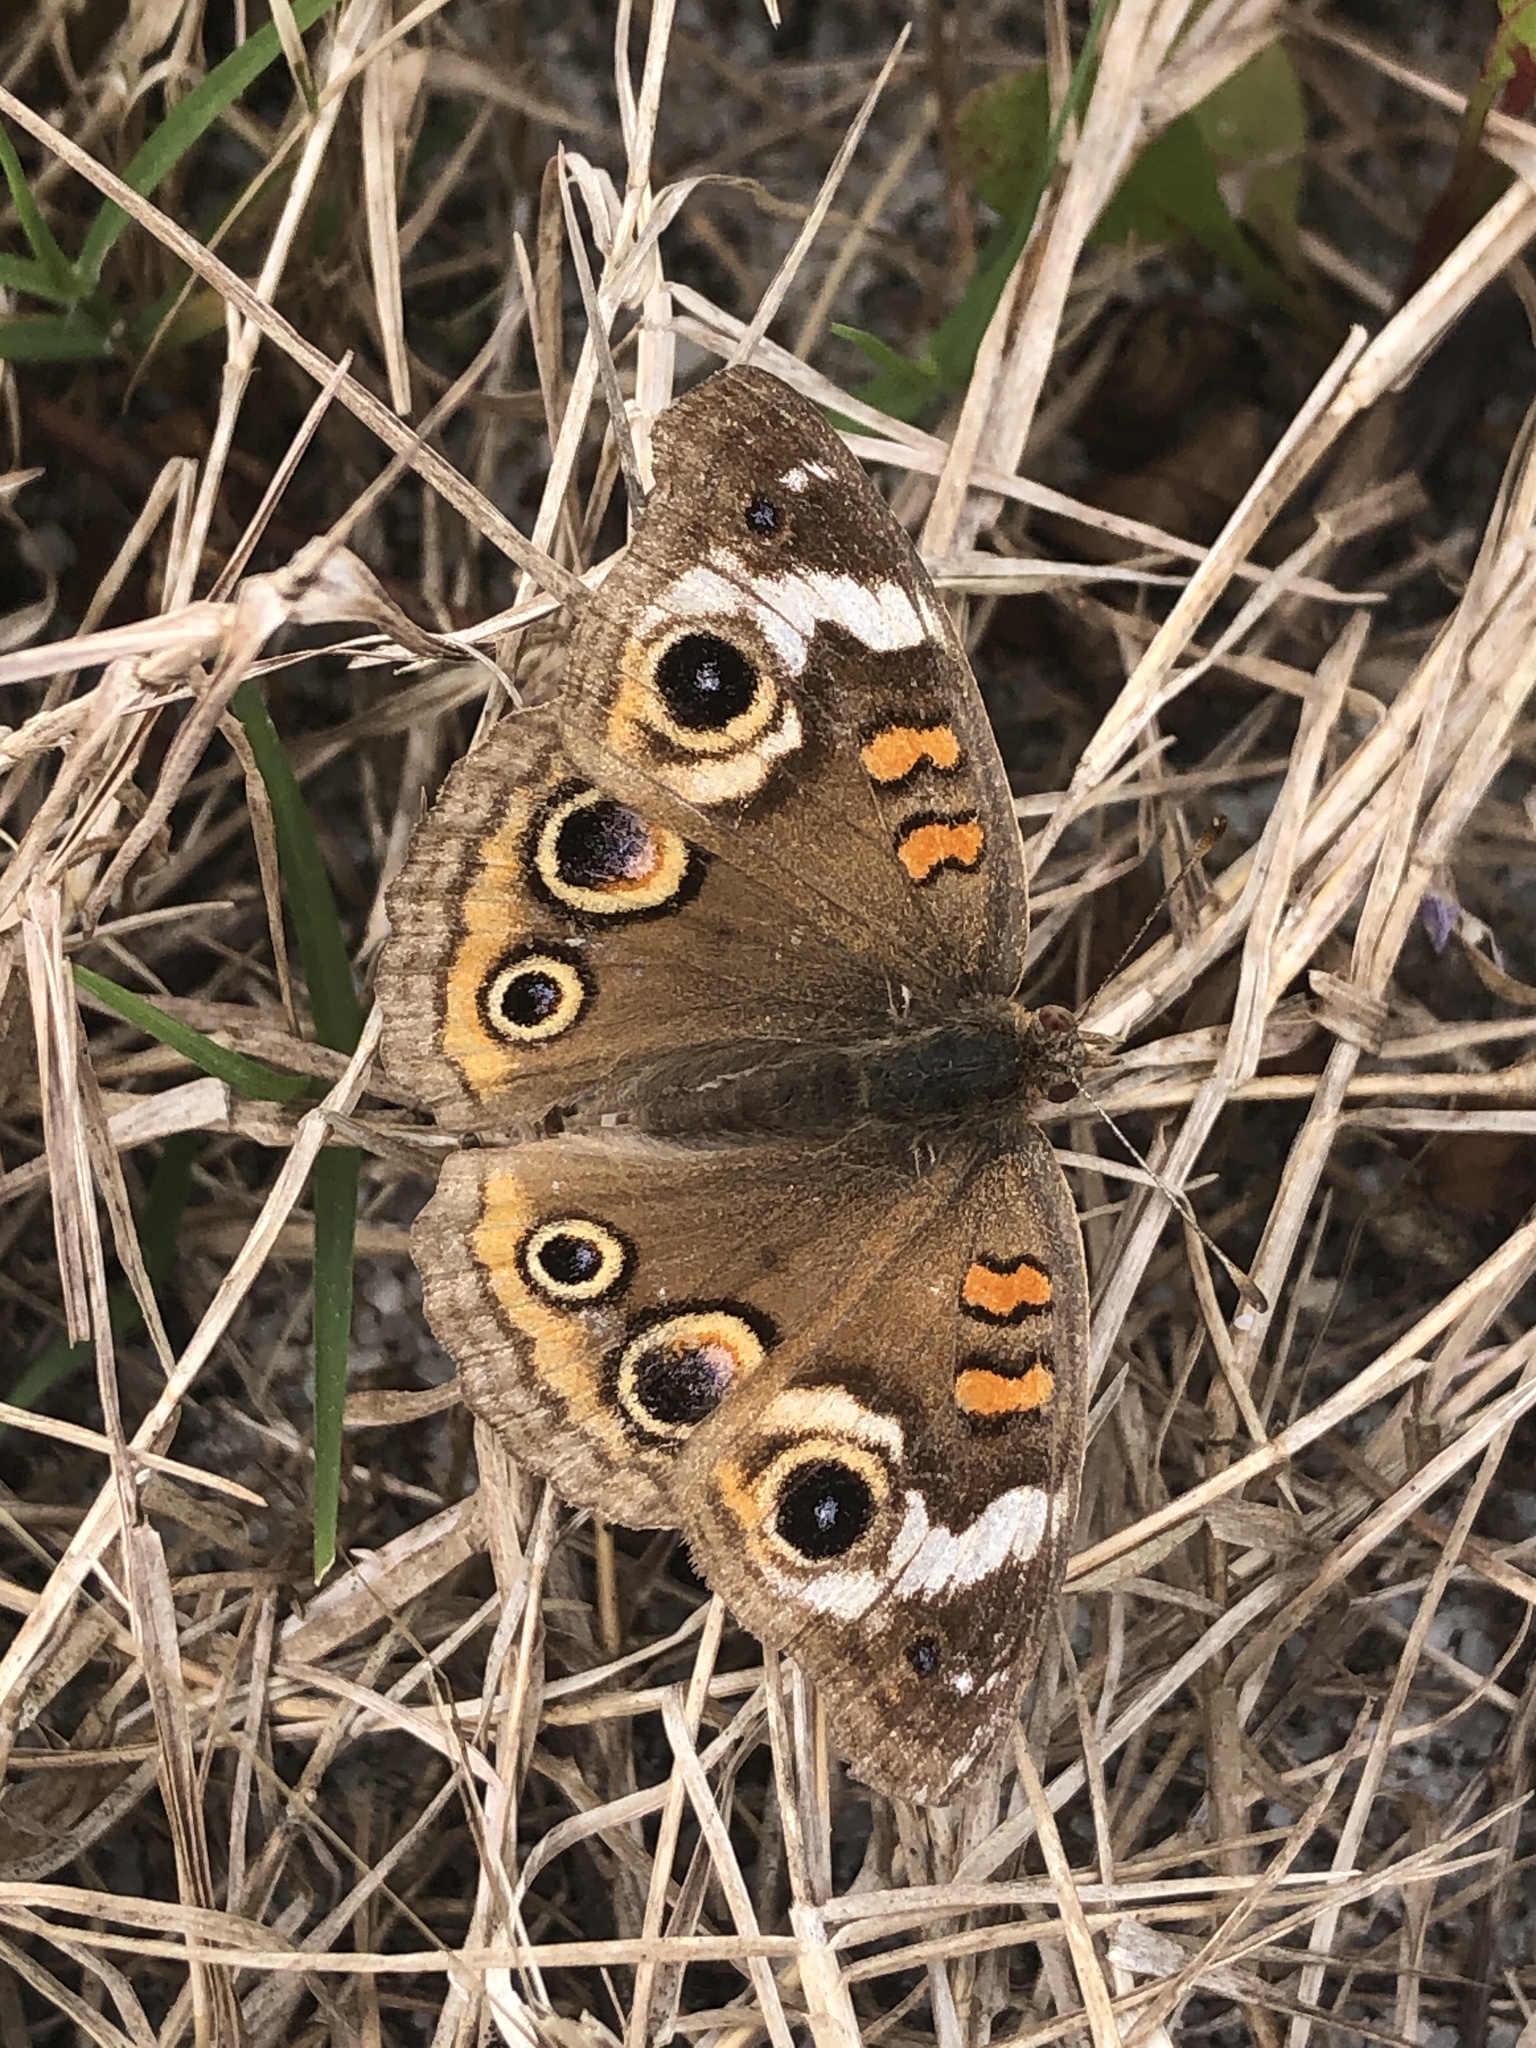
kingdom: Animalia
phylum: Arthropoda
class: Insecta
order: Lepidoptera
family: Nymphalidae
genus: Junonia
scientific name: Junonia coenia
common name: Common buckeye
